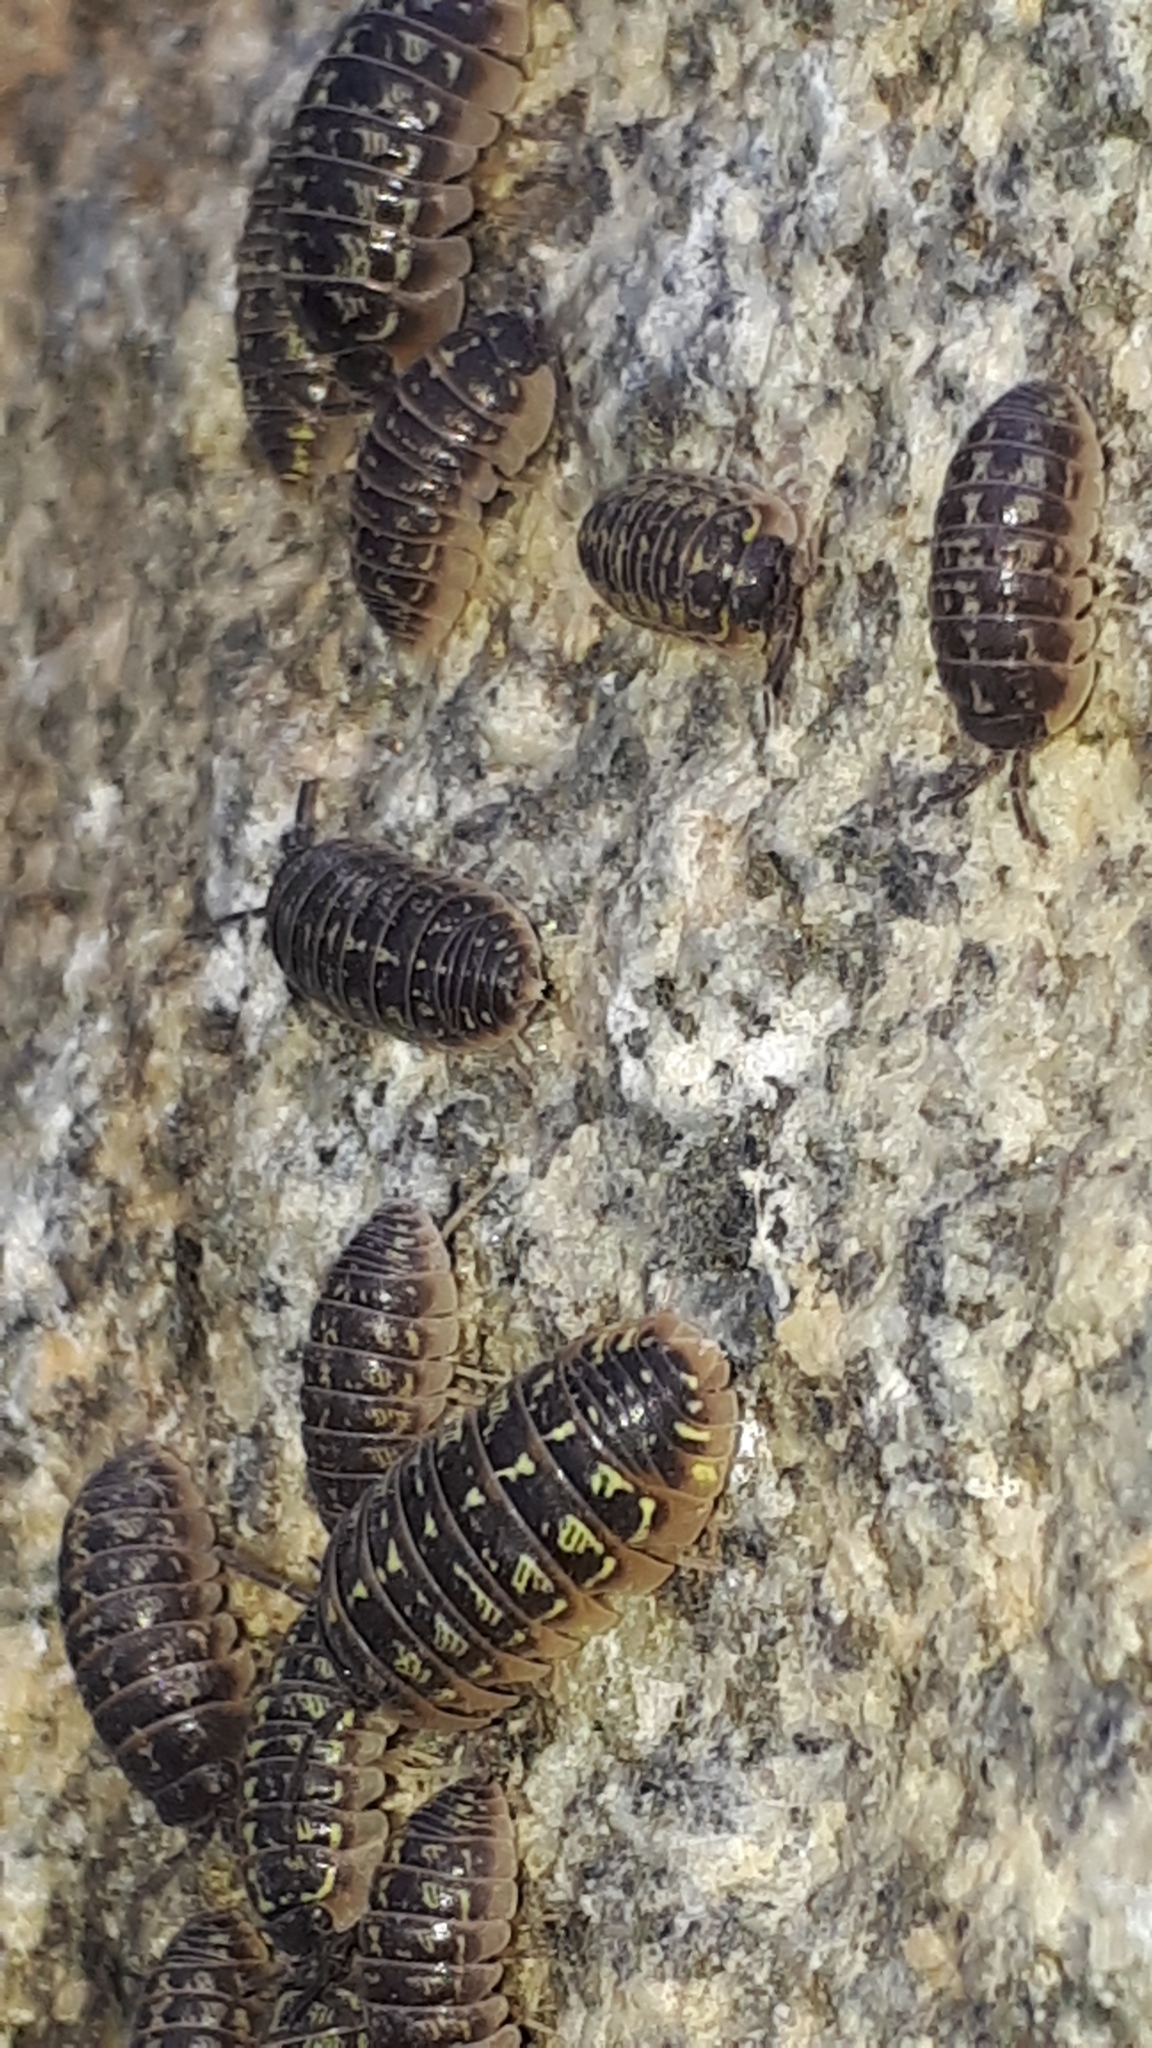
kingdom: Animalia
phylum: Arthropoda
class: Malacostraca
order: Isopoda
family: Armadillidiidae
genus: Armadillidium
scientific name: Armadillidium versicolor
